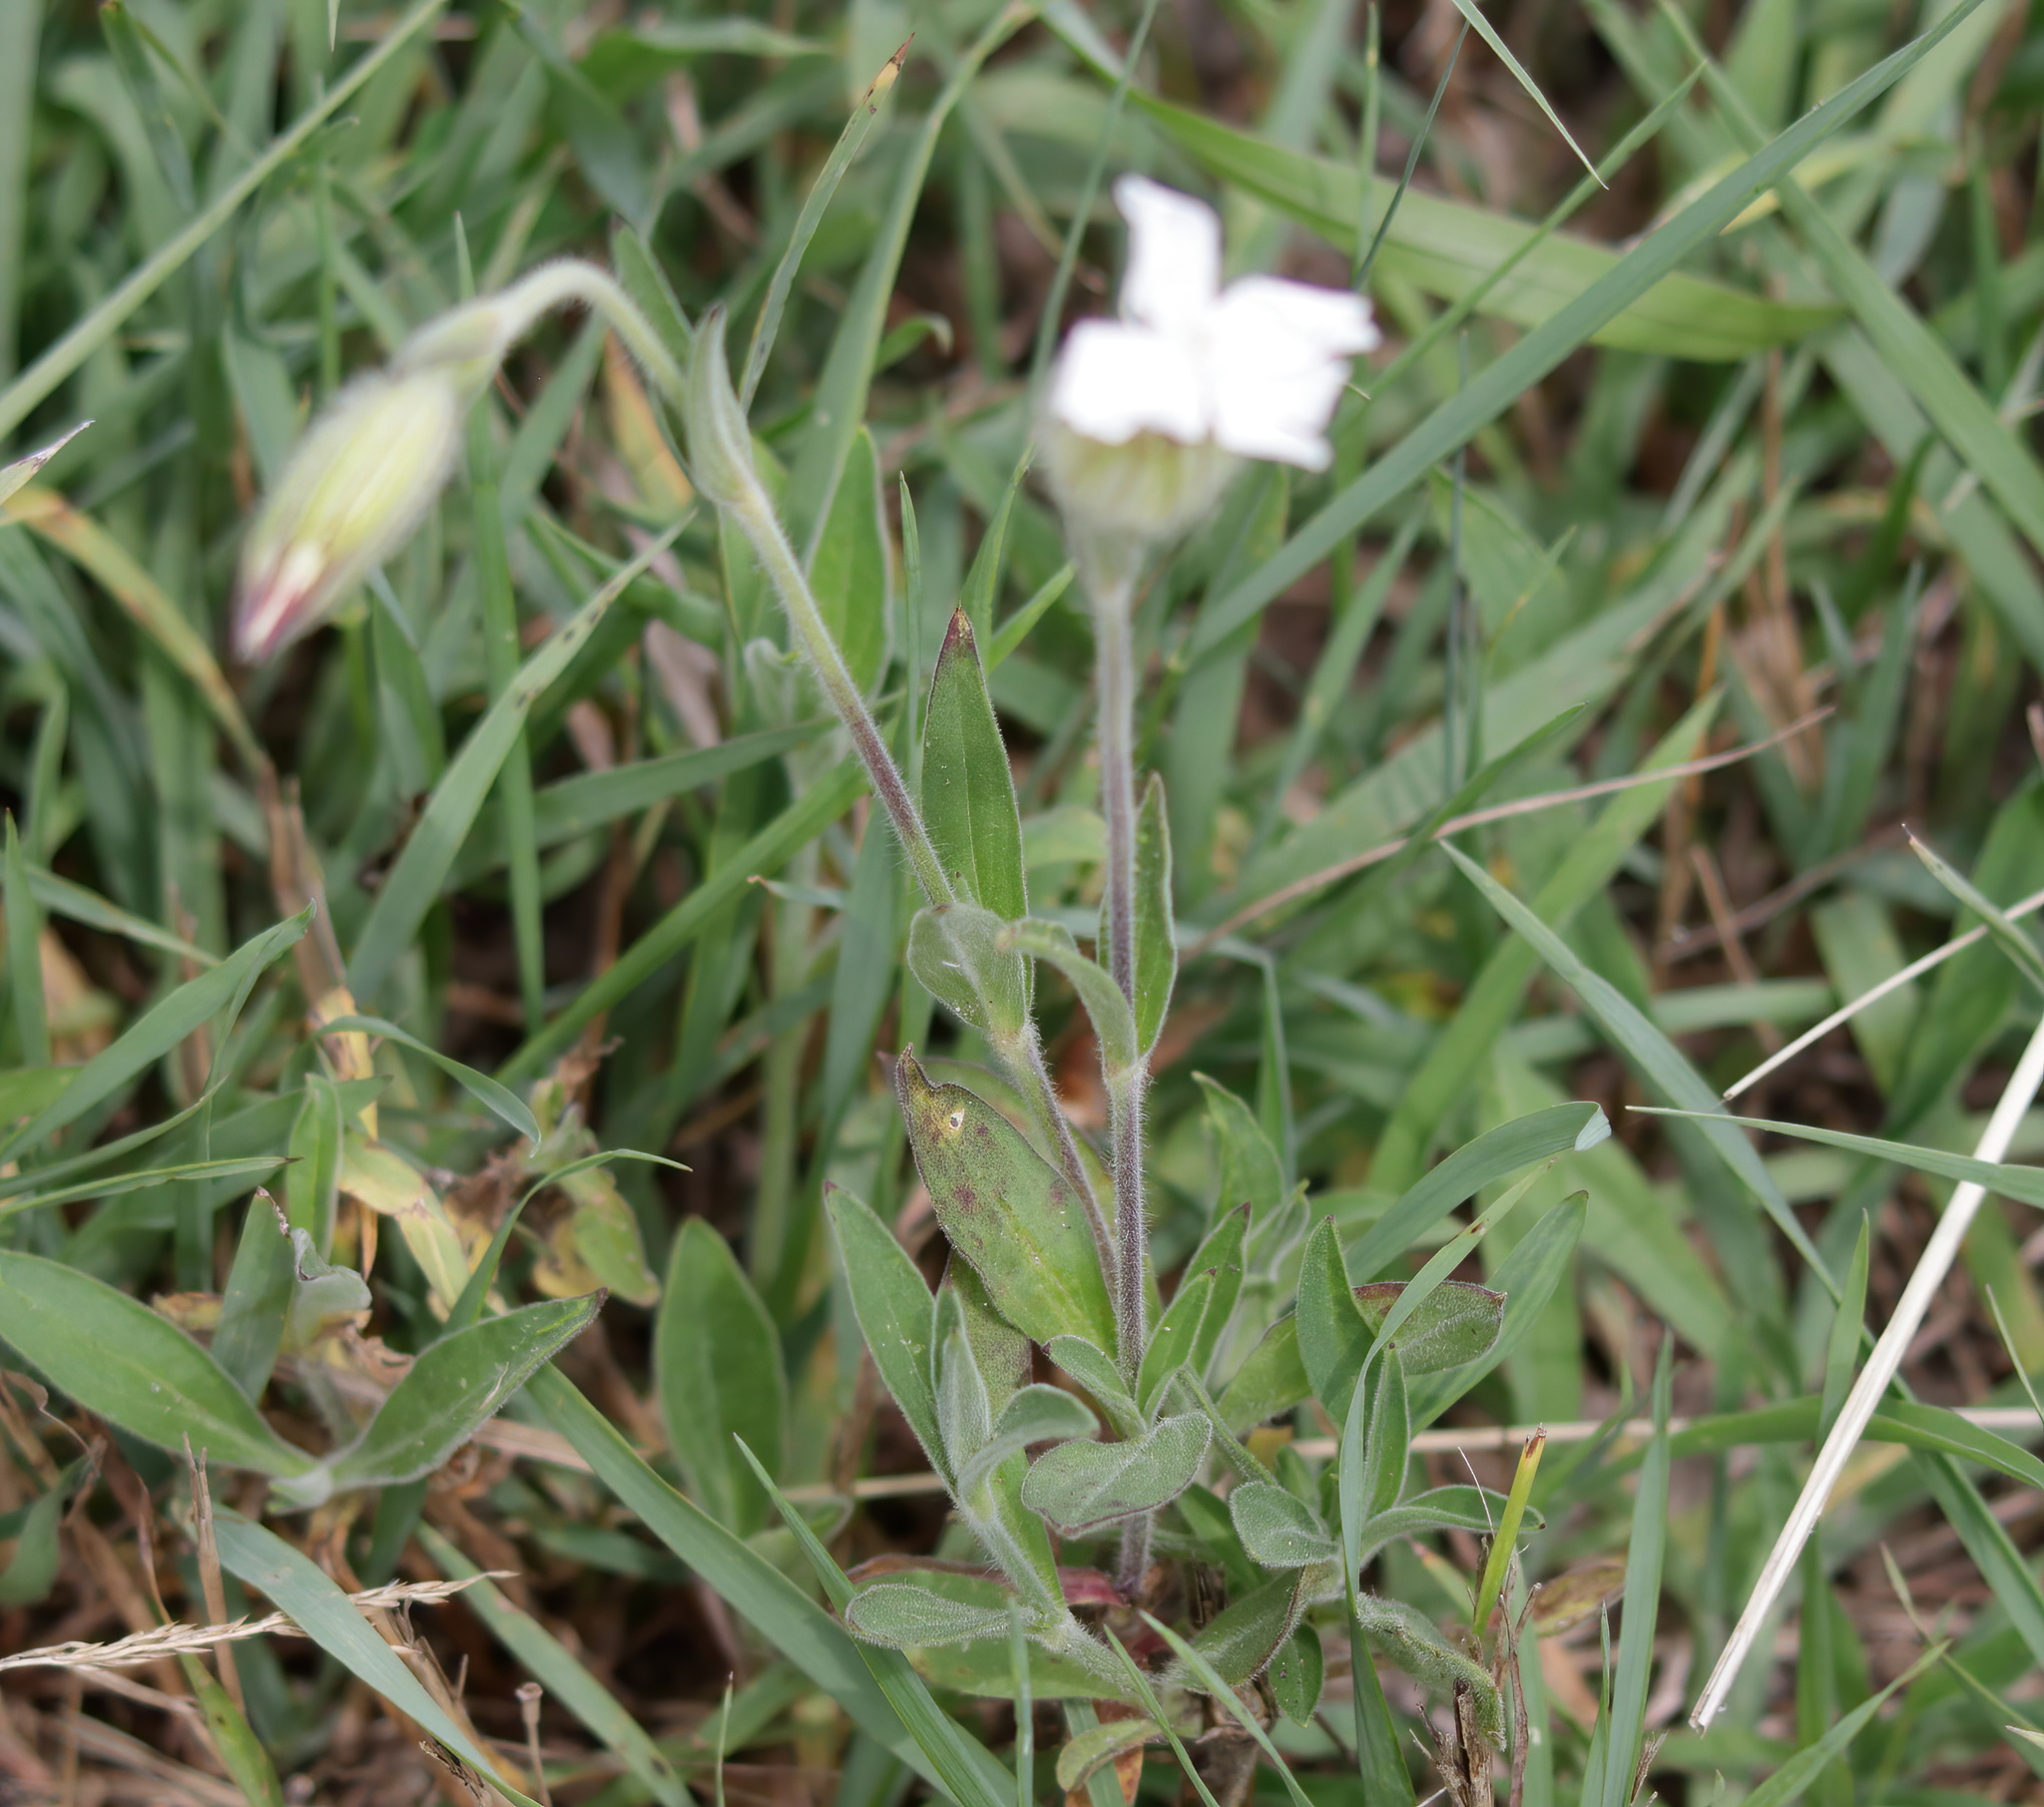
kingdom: Plantae
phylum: Tracheophyta
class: Magnoliopsida
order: Caryophyllales
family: Caryophyllaceae
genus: Silene
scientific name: Silene latifolia
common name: White campion
